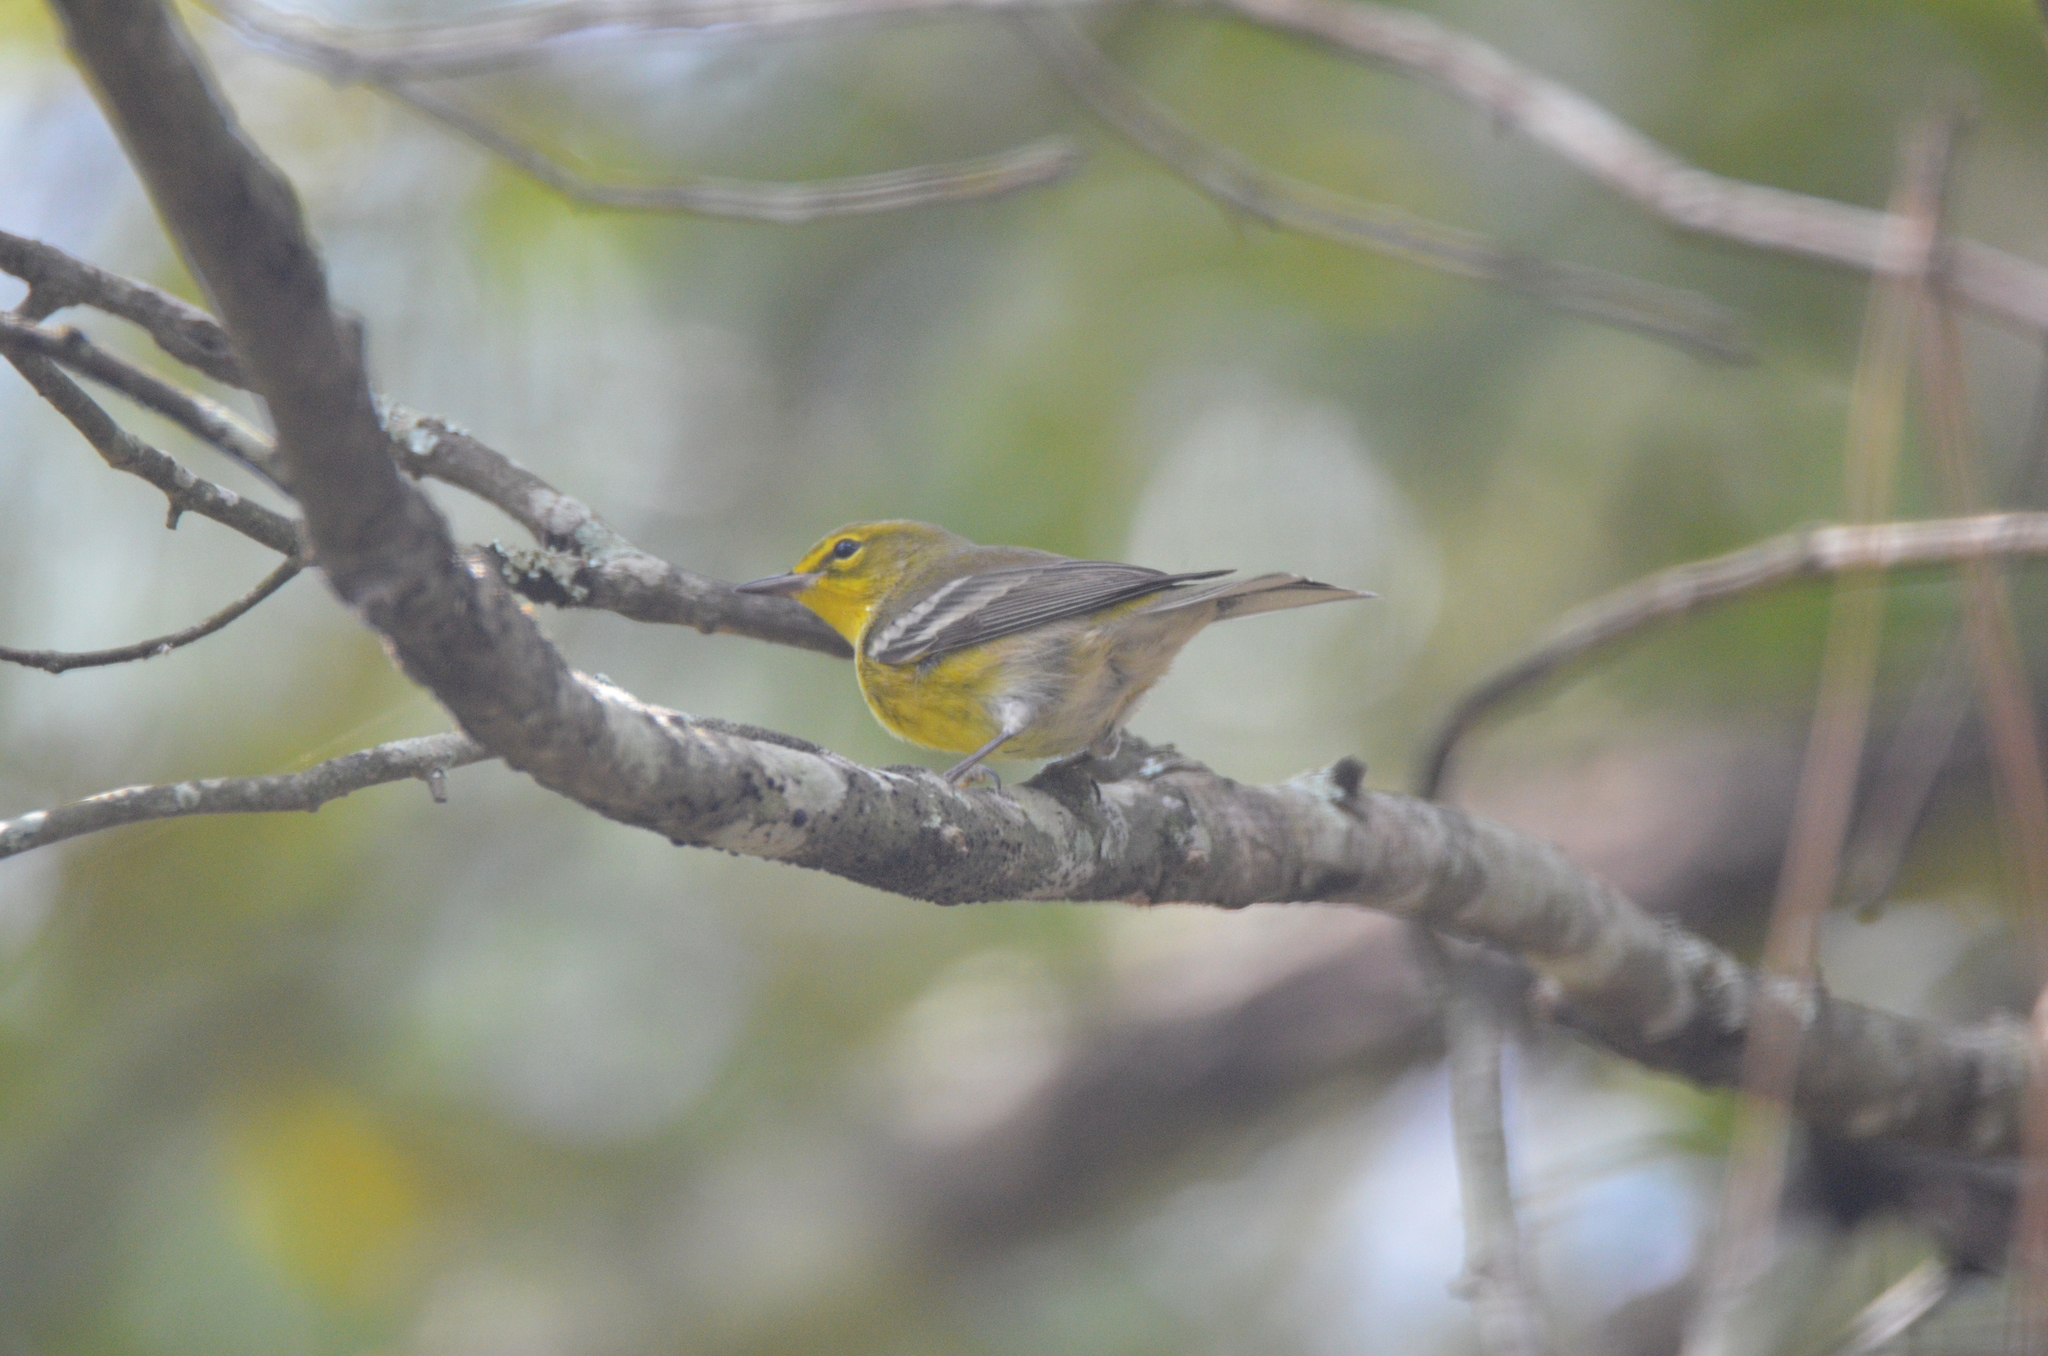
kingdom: Animalia
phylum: Chordata
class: Aves
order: Passeriformes
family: Parulidae
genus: Setophaga
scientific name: Setophaga pinus
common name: Pine warbler
